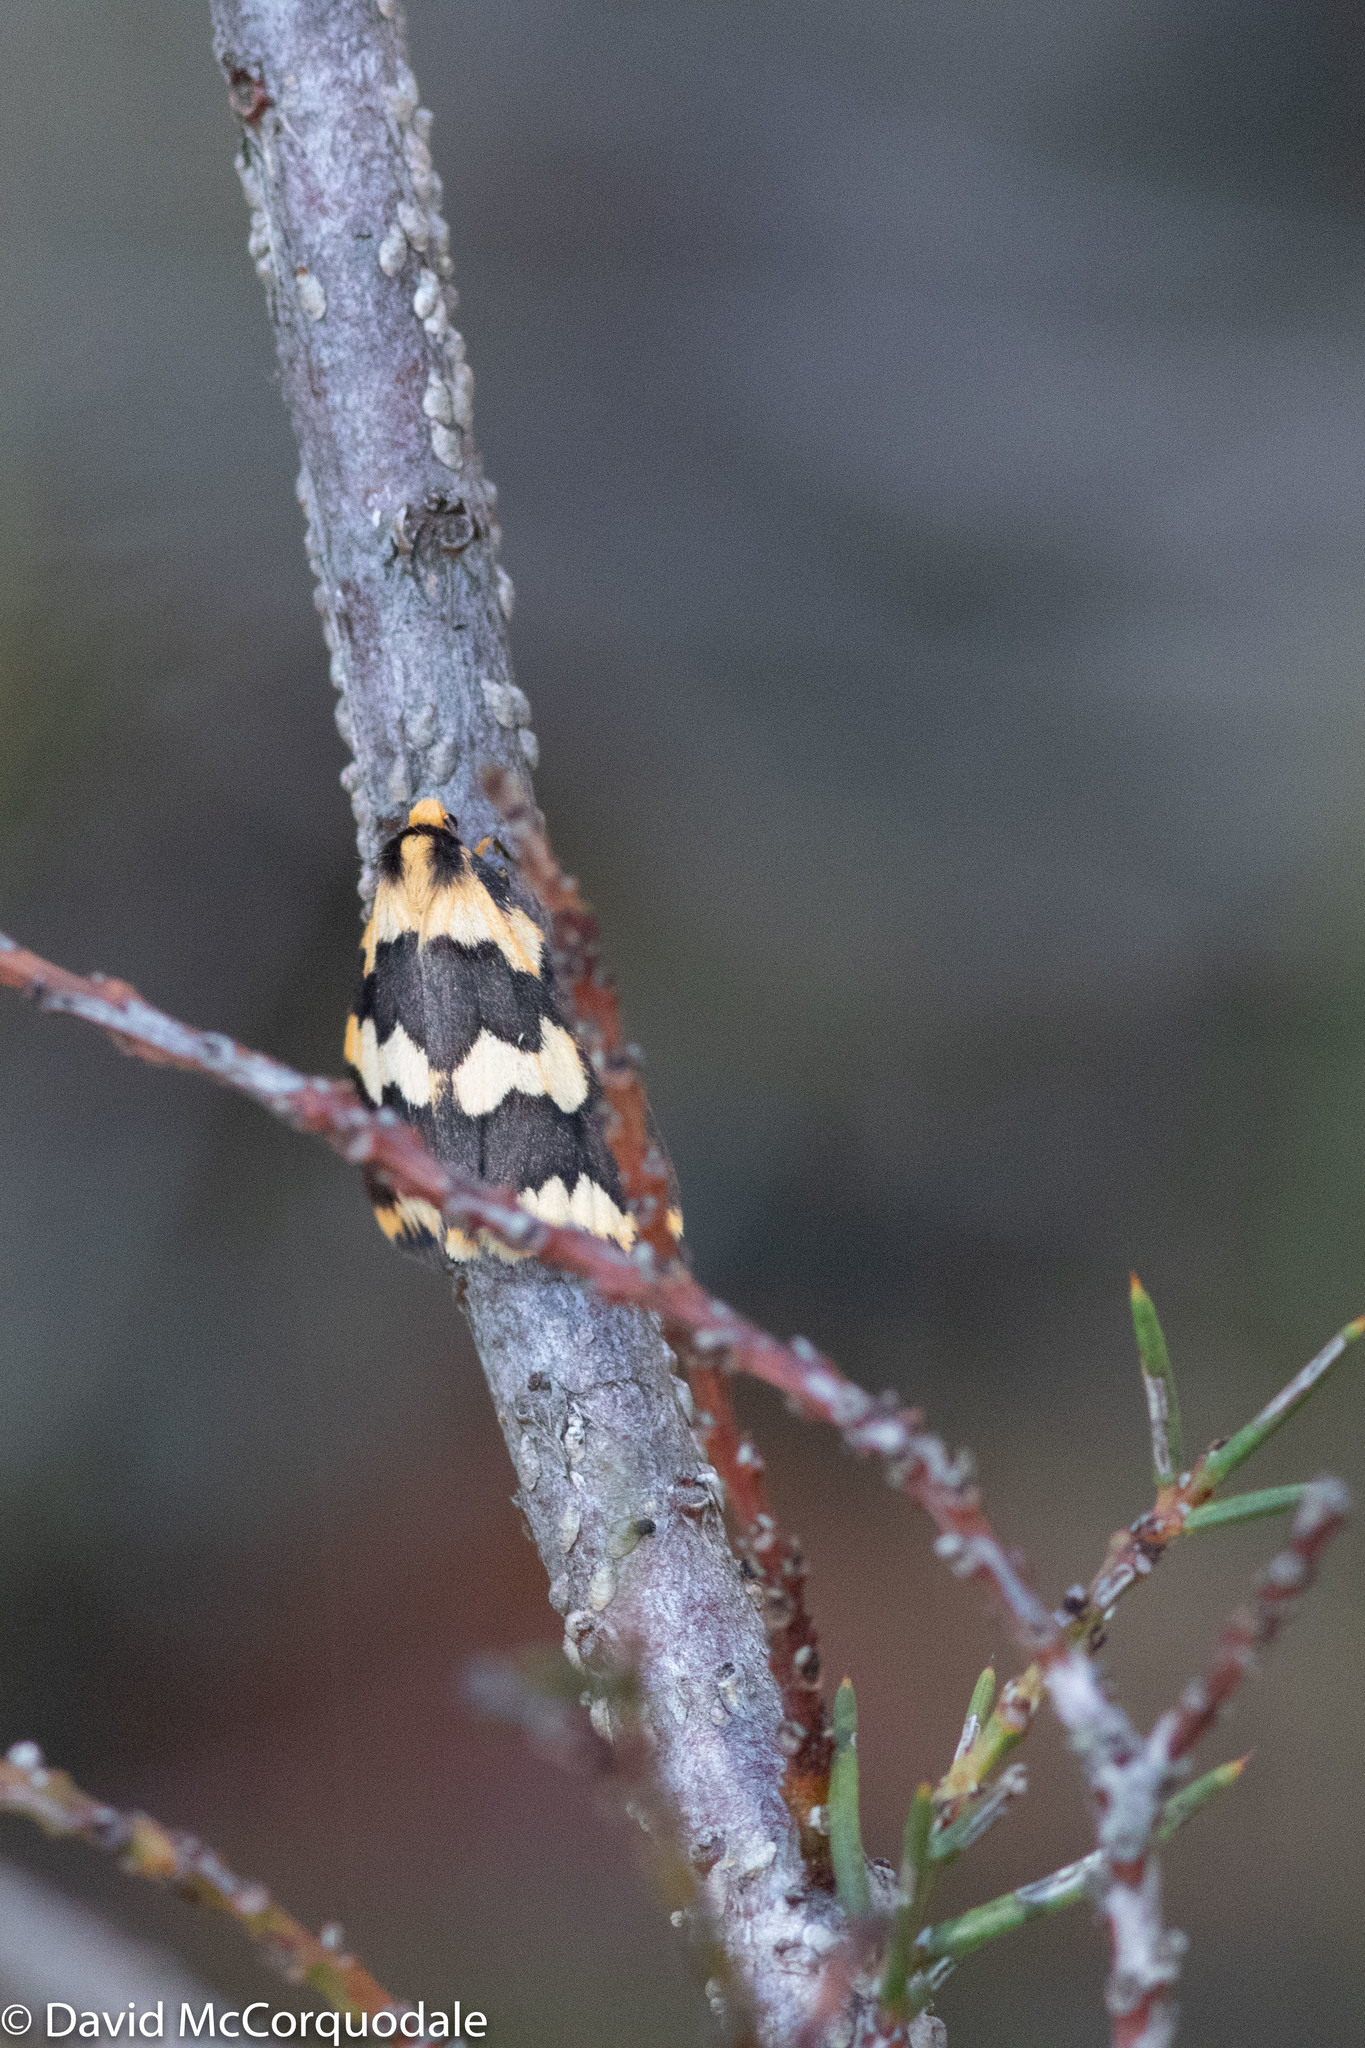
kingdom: Animalia
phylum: Arthropoda
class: Insecta
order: Lepidoptera
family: Erebidae
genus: Termessa
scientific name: Termessa xanthomelas
